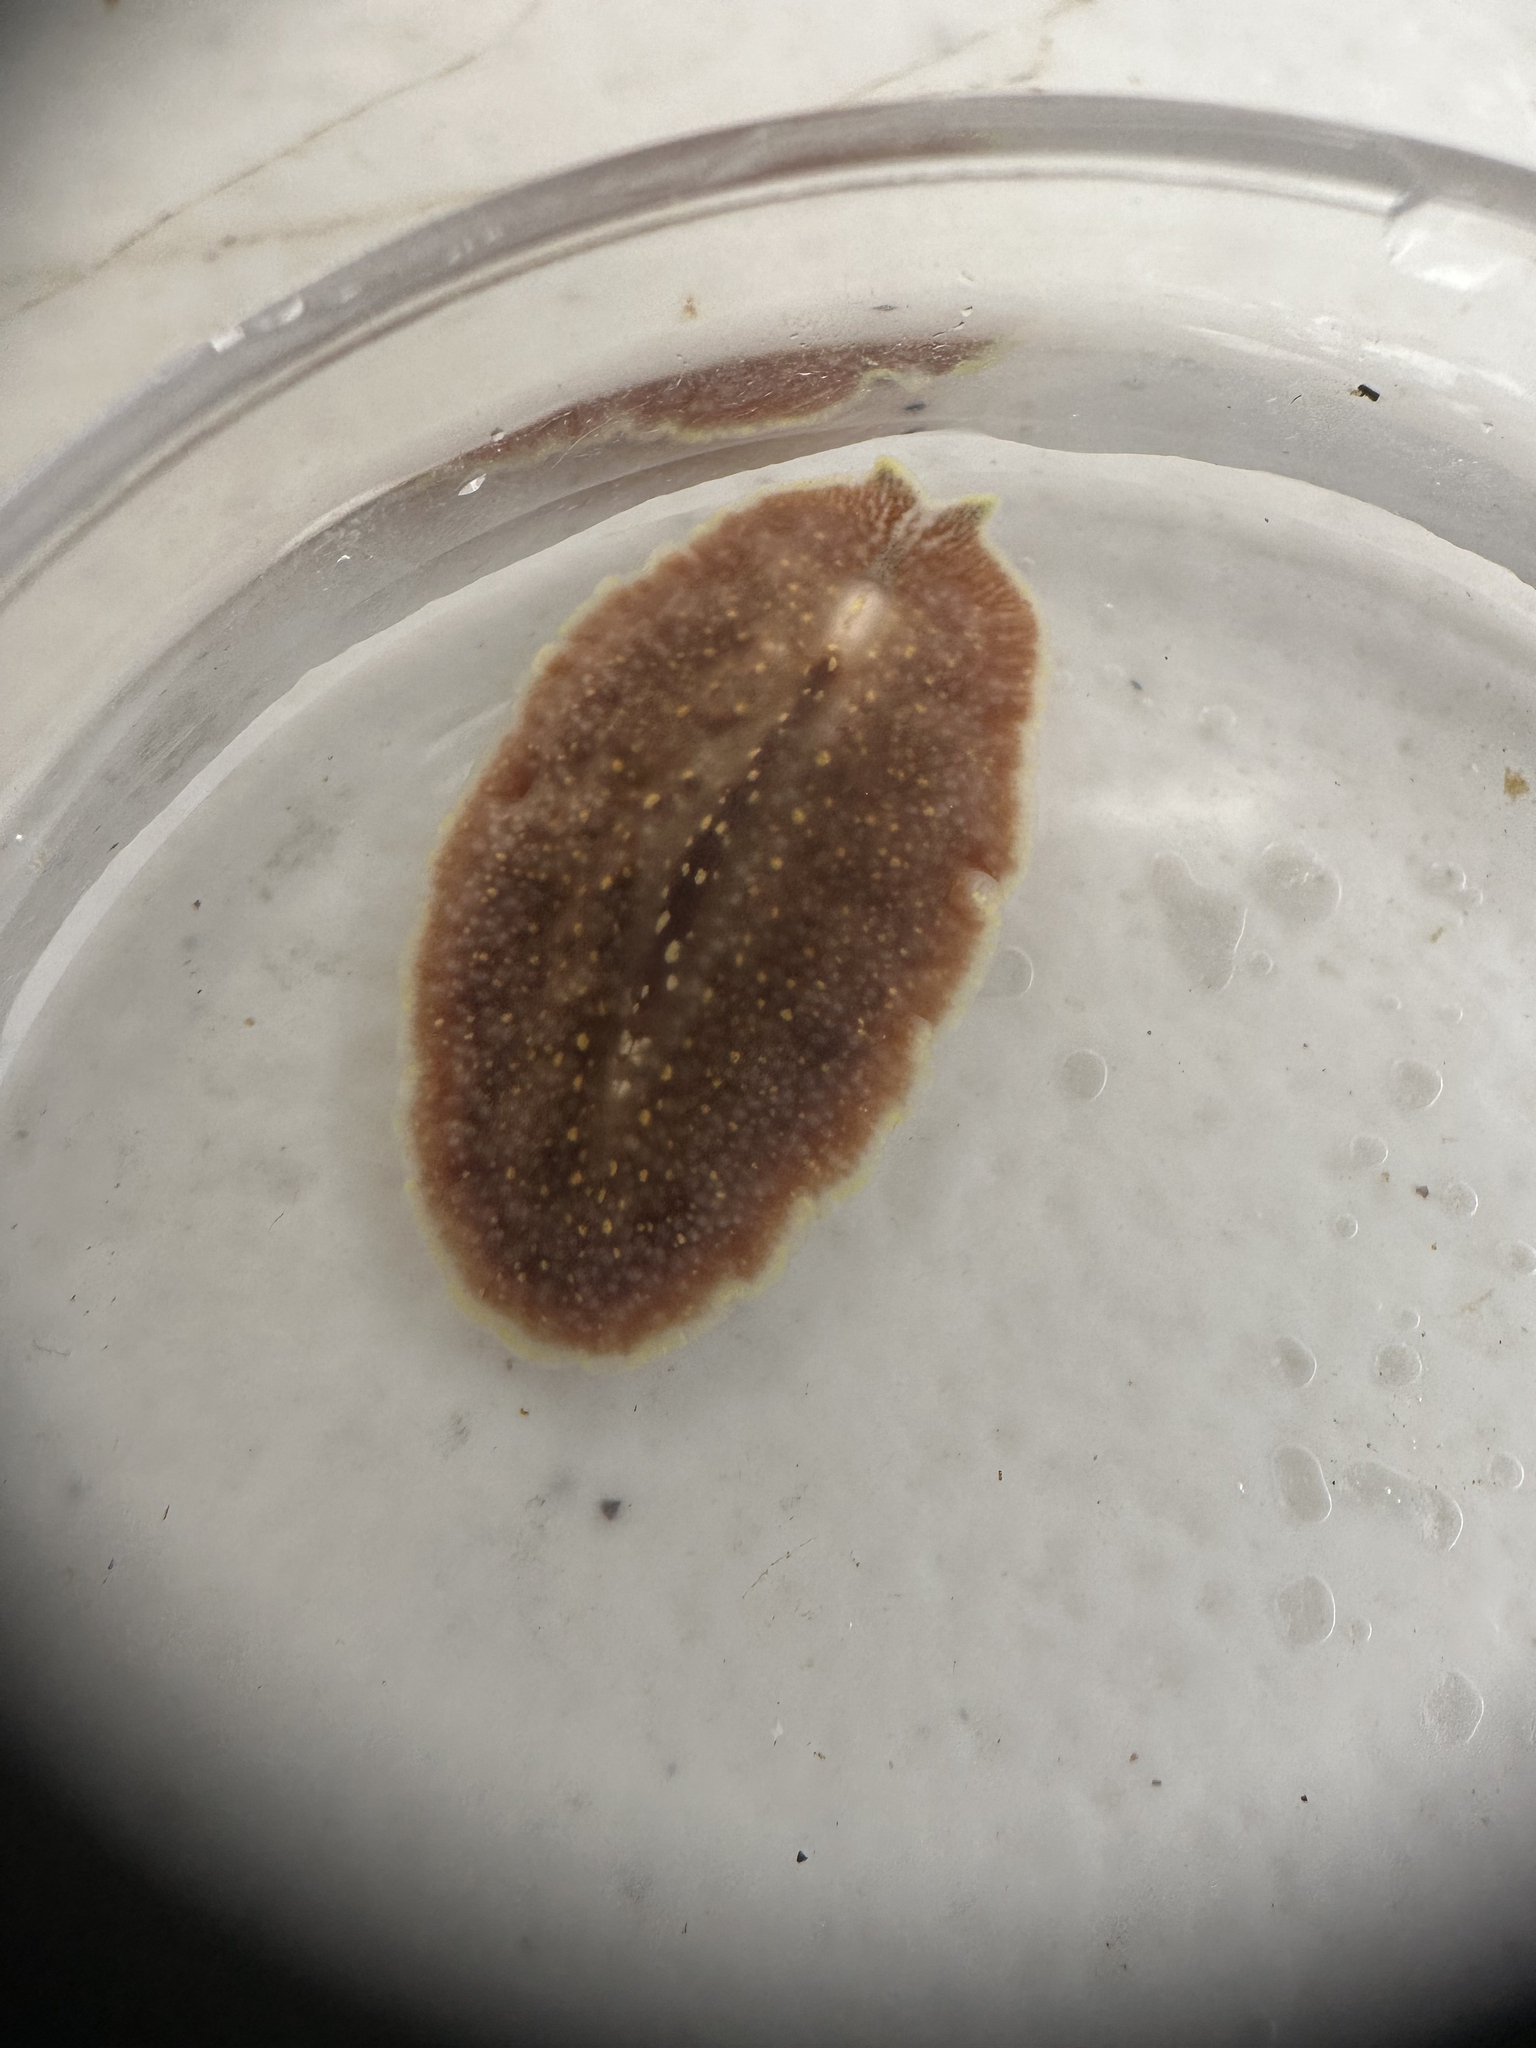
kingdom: Animalia
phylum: Platyhelminthes
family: Stylostomidae
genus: Cycloporus
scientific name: Cycloporus variegatus
